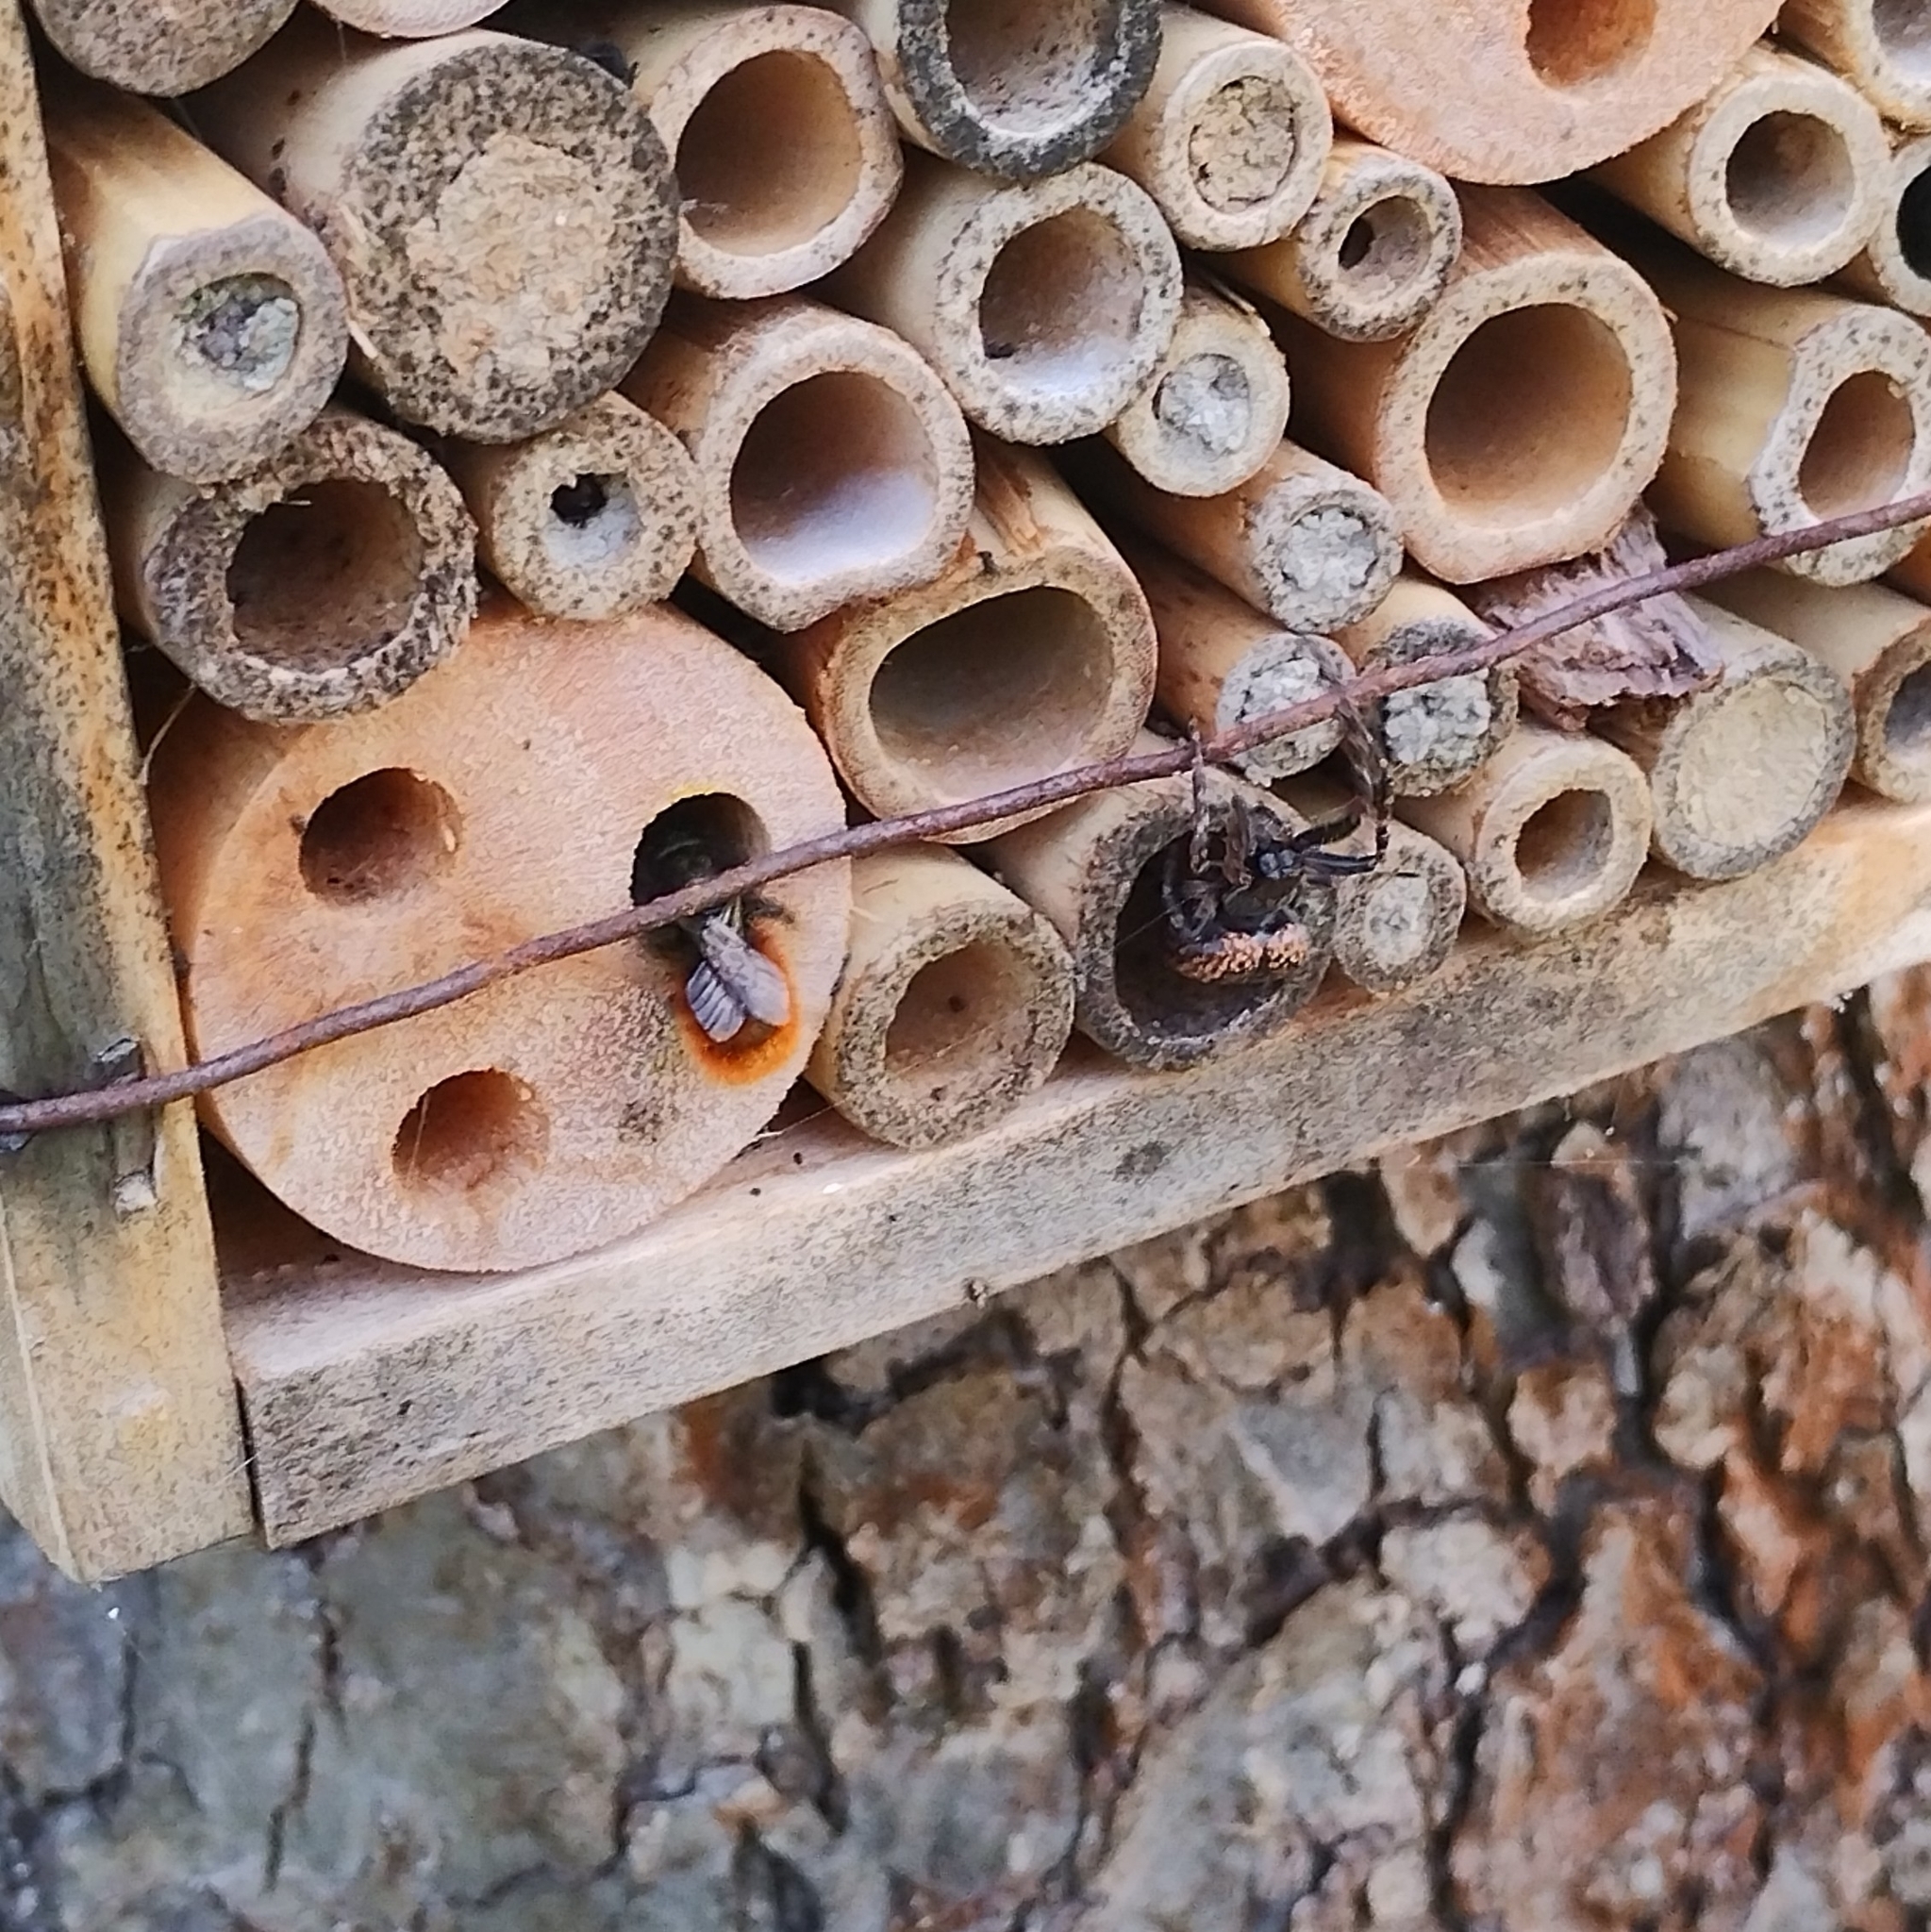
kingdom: Animalia
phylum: Arthropoda
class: Insecta
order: Hymenoptera
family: Megachilidae
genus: Osmia
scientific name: Osmia cornuta
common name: Mason bee
